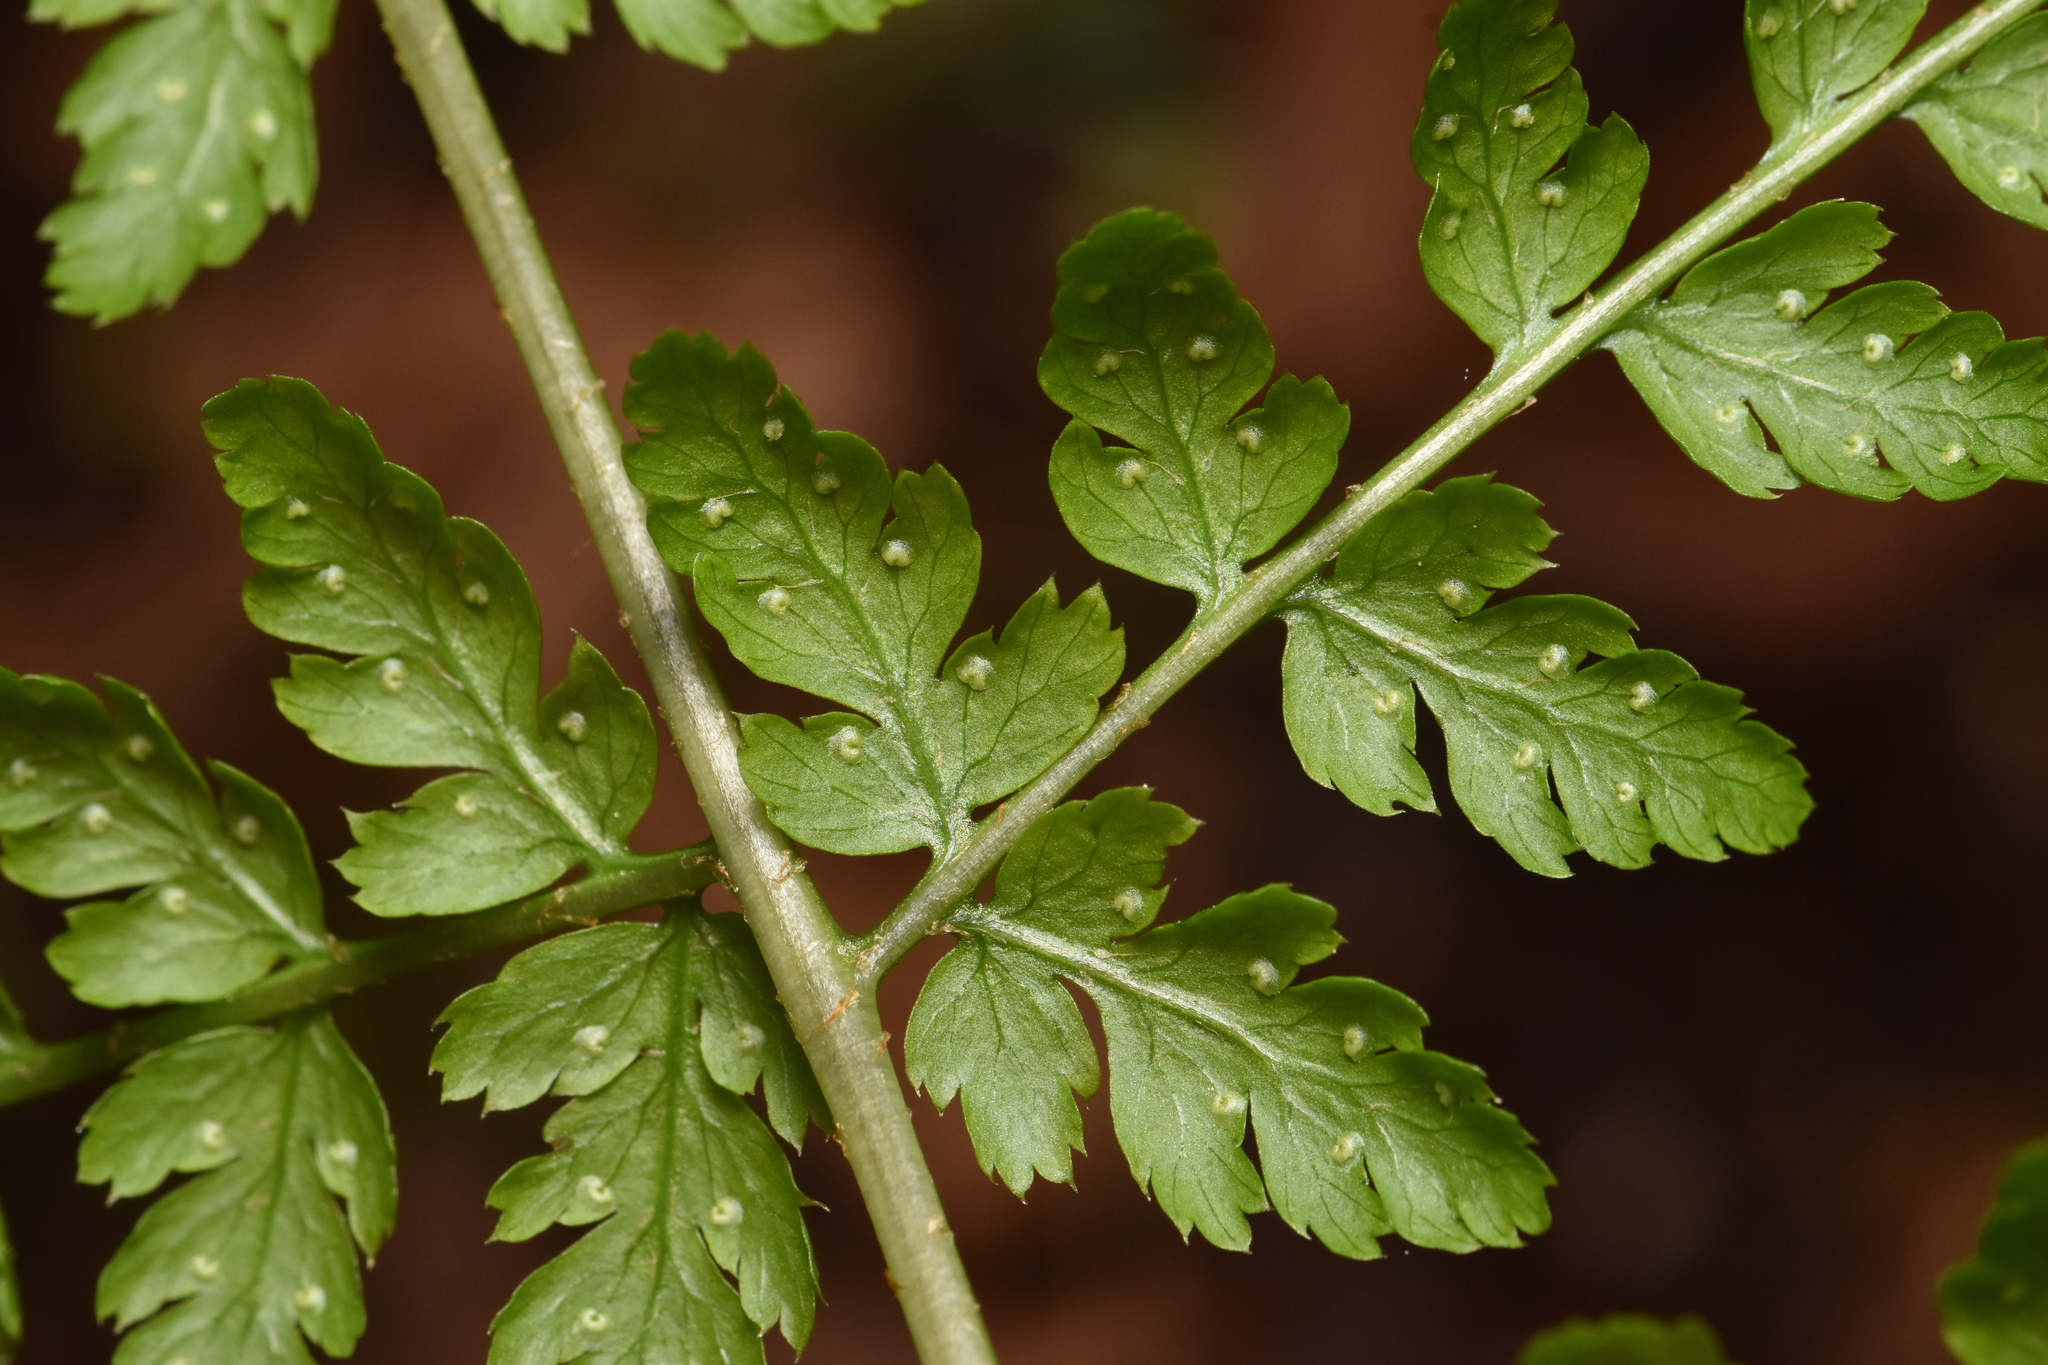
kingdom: Plantae
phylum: Tracheophyta
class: Polypodiopsida
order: Polypodiales
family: Dryopteridaceae
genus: Dryopteris
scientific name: Dryopteris expansa
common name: Northern buckler fern
